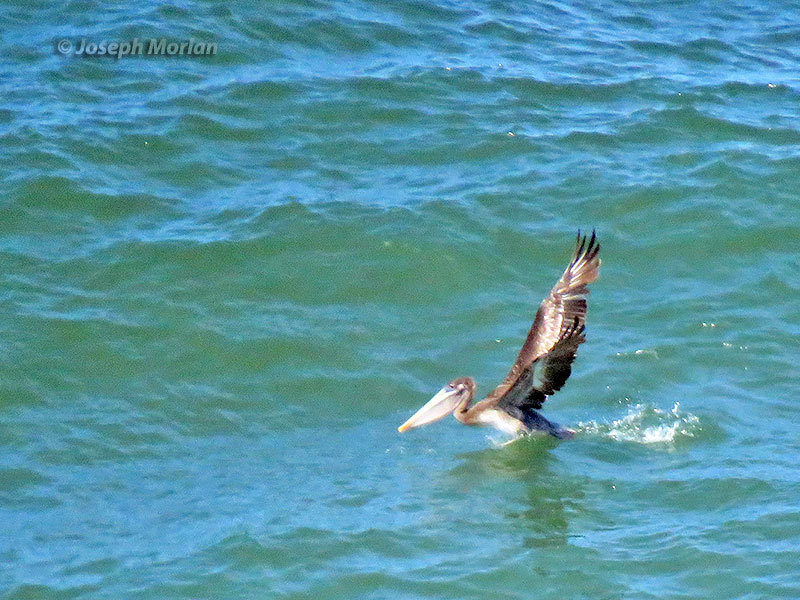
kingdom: Animalia
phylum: Chordata
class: Aves
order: Pelecaniformes
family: Pelecanidae
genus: Pelecanus
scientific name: Pelecanus occidentalis
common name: Brown pelican
